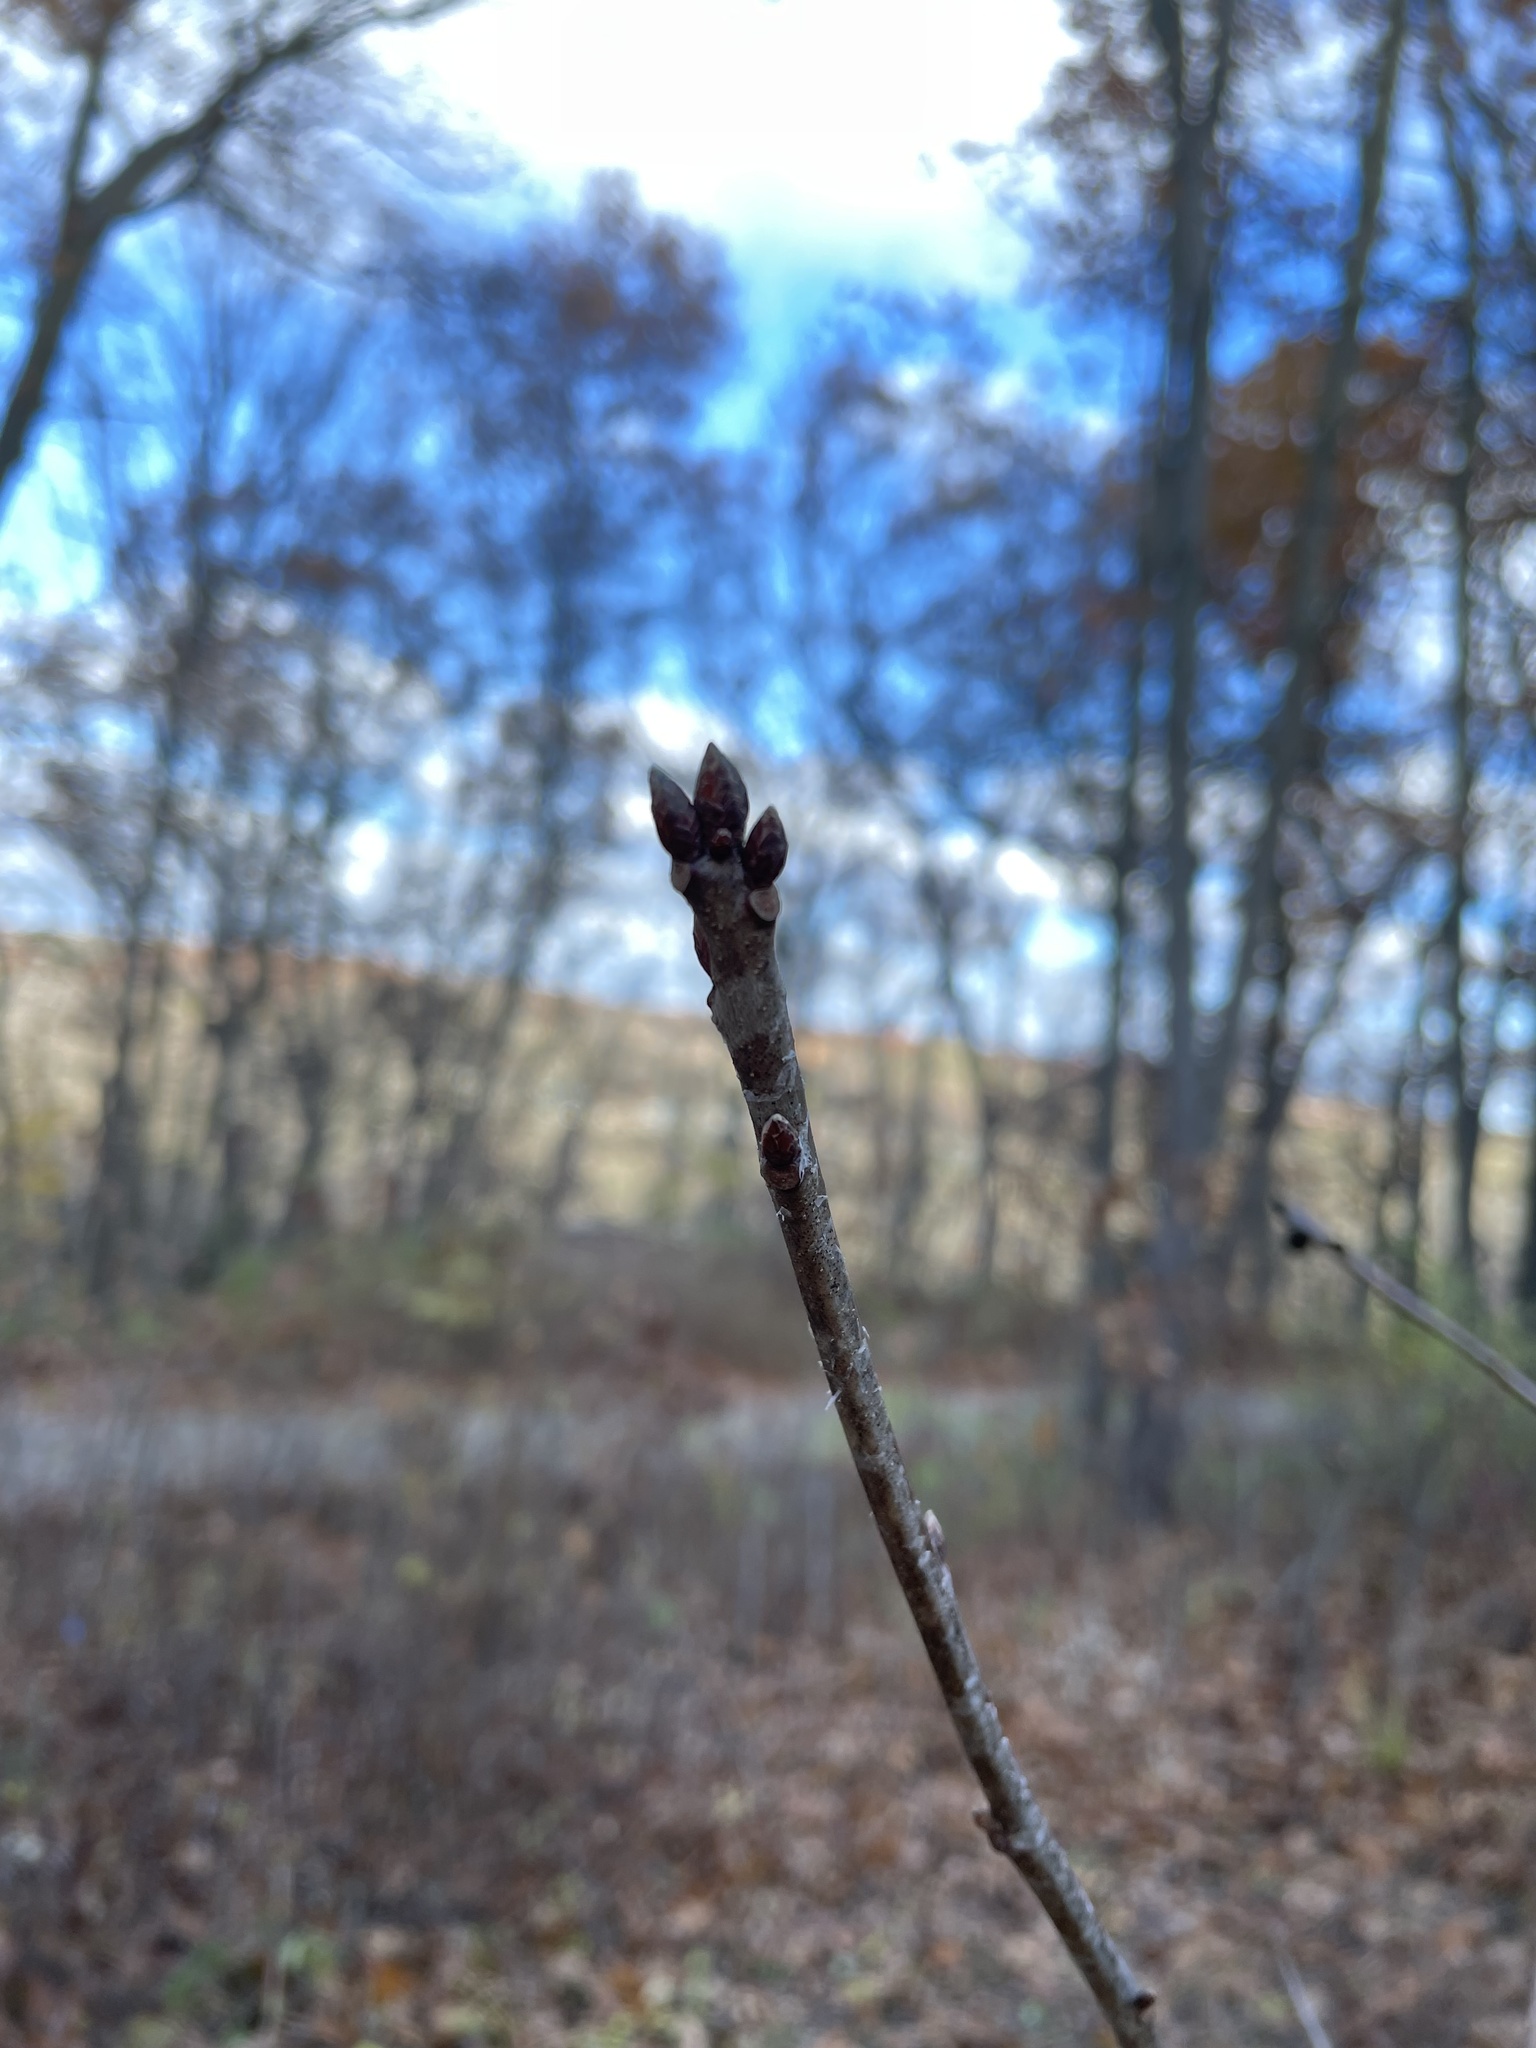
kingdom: Animalia
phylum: Arthropoda
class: Insecta
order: Hymenoptera
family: Cynipidae
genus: Kokkocynips
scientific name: Kokkocynips imbricariae
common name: Banded bullet gall wasp
